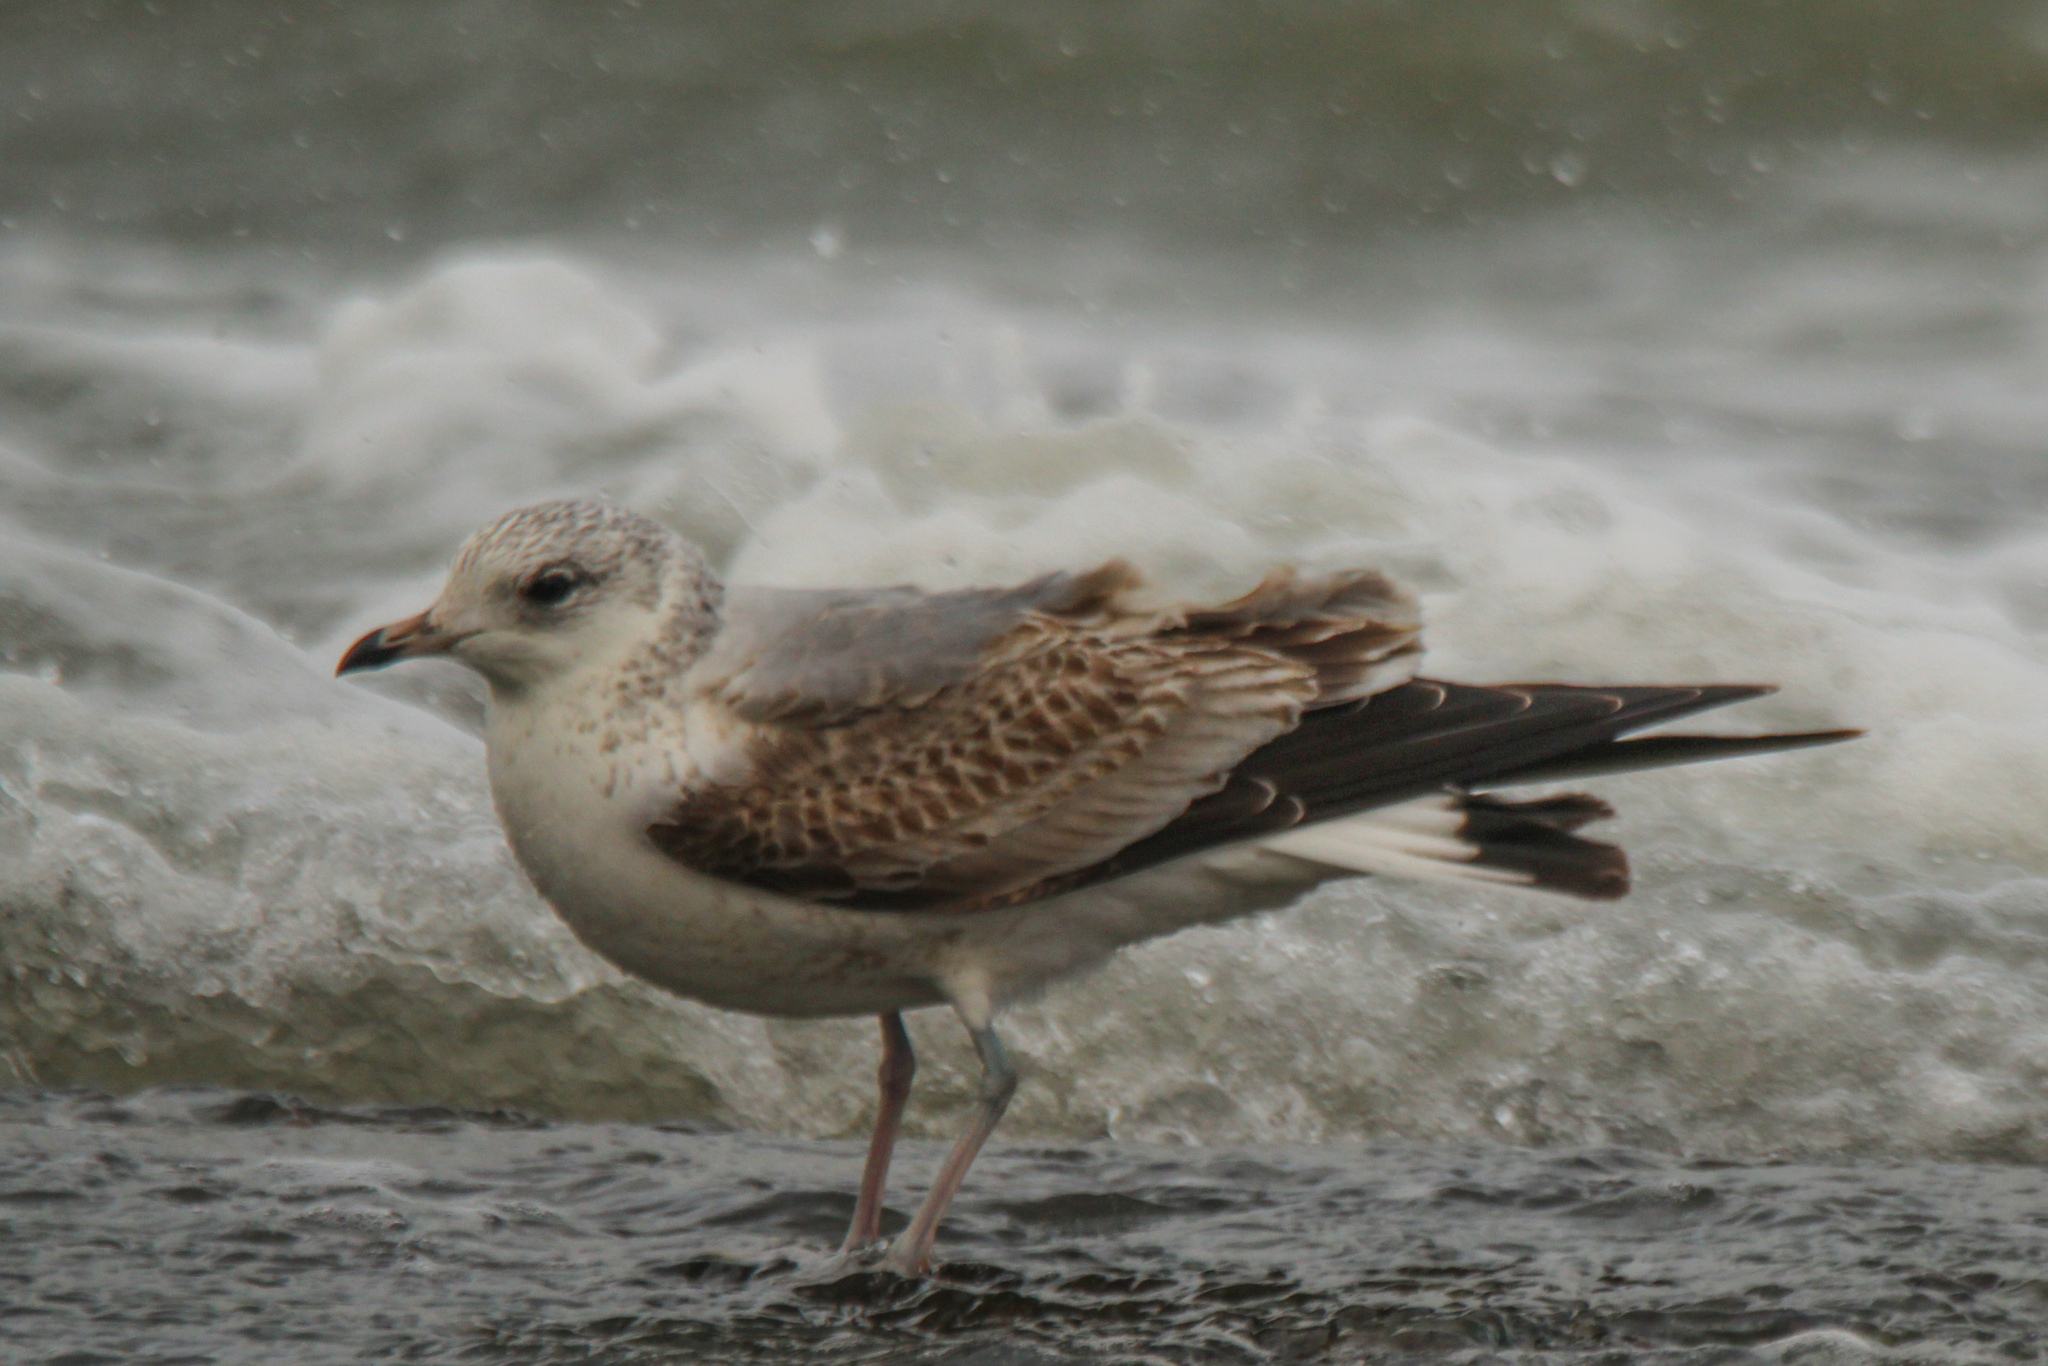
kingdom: Animalia
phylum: Chordata
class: Aves
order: Charadriiformes
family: Laridae
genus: Larus
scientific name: Larus canus
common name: Mew gull
